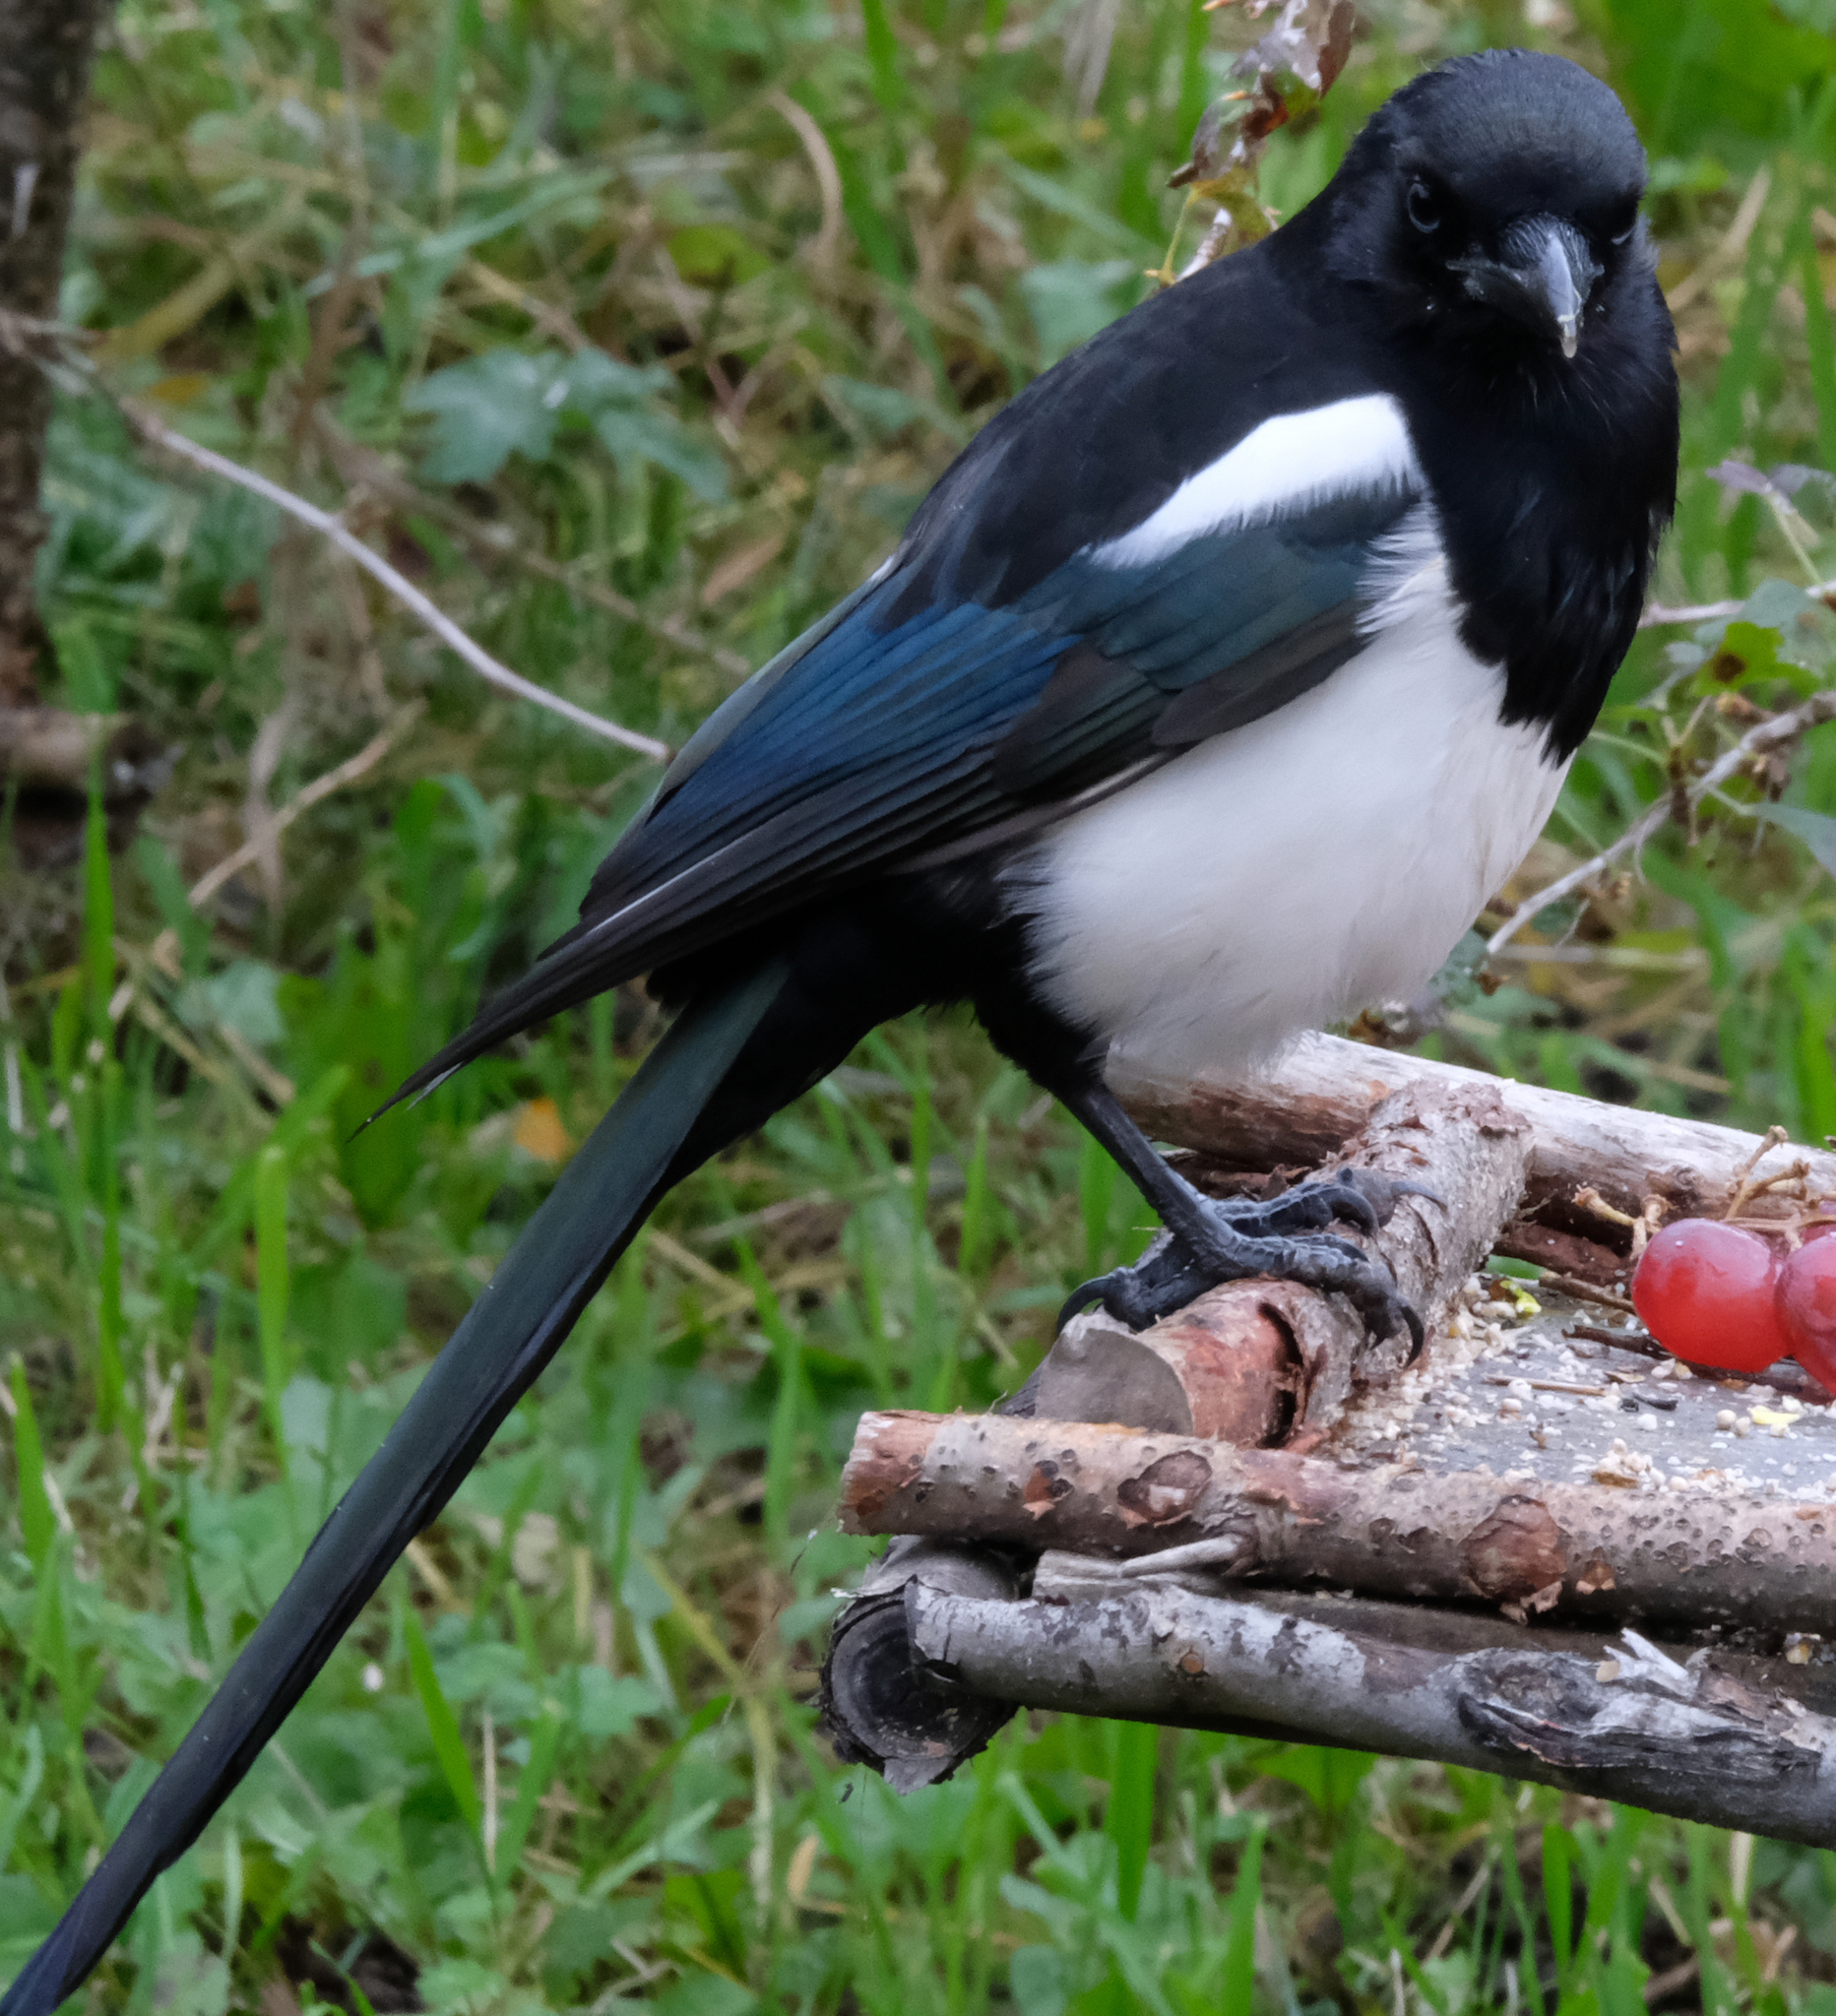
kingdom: Animalia
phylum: Chordata
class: Aves
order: Passeriformes
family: Corvidae
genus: Pica
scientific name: Pica hudsonia
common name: Black-billed magpie
